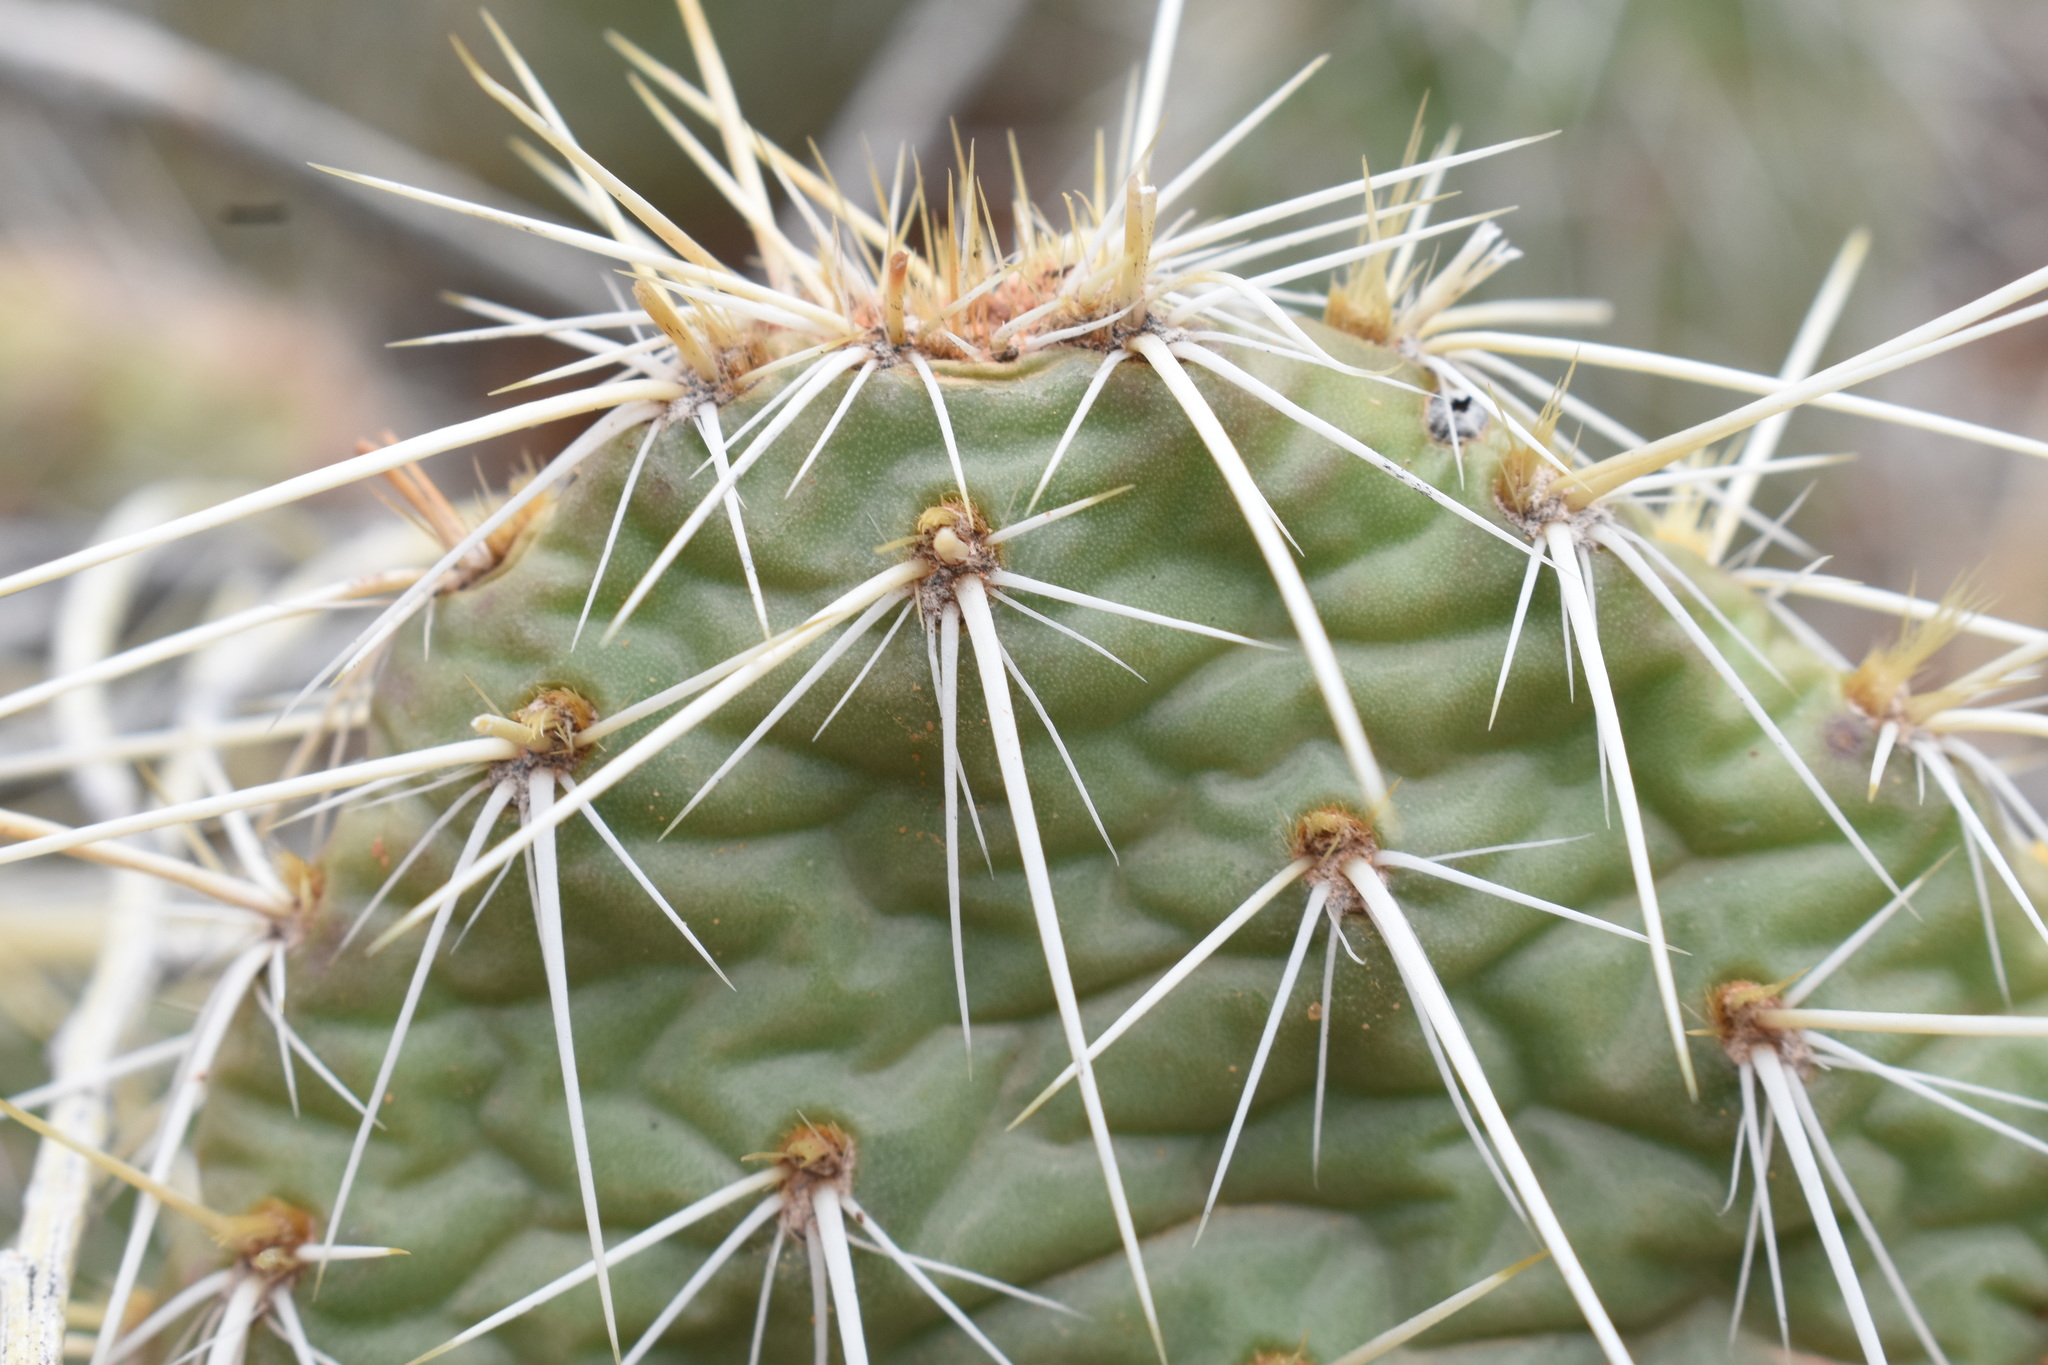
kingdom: Plantae
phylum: Tracheophyta
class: Magnoliopsida
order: Caryophyllales
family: Cactaceae
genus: Opuntia
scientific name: Opuntia polyacantha
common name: Plains prickly-pear
